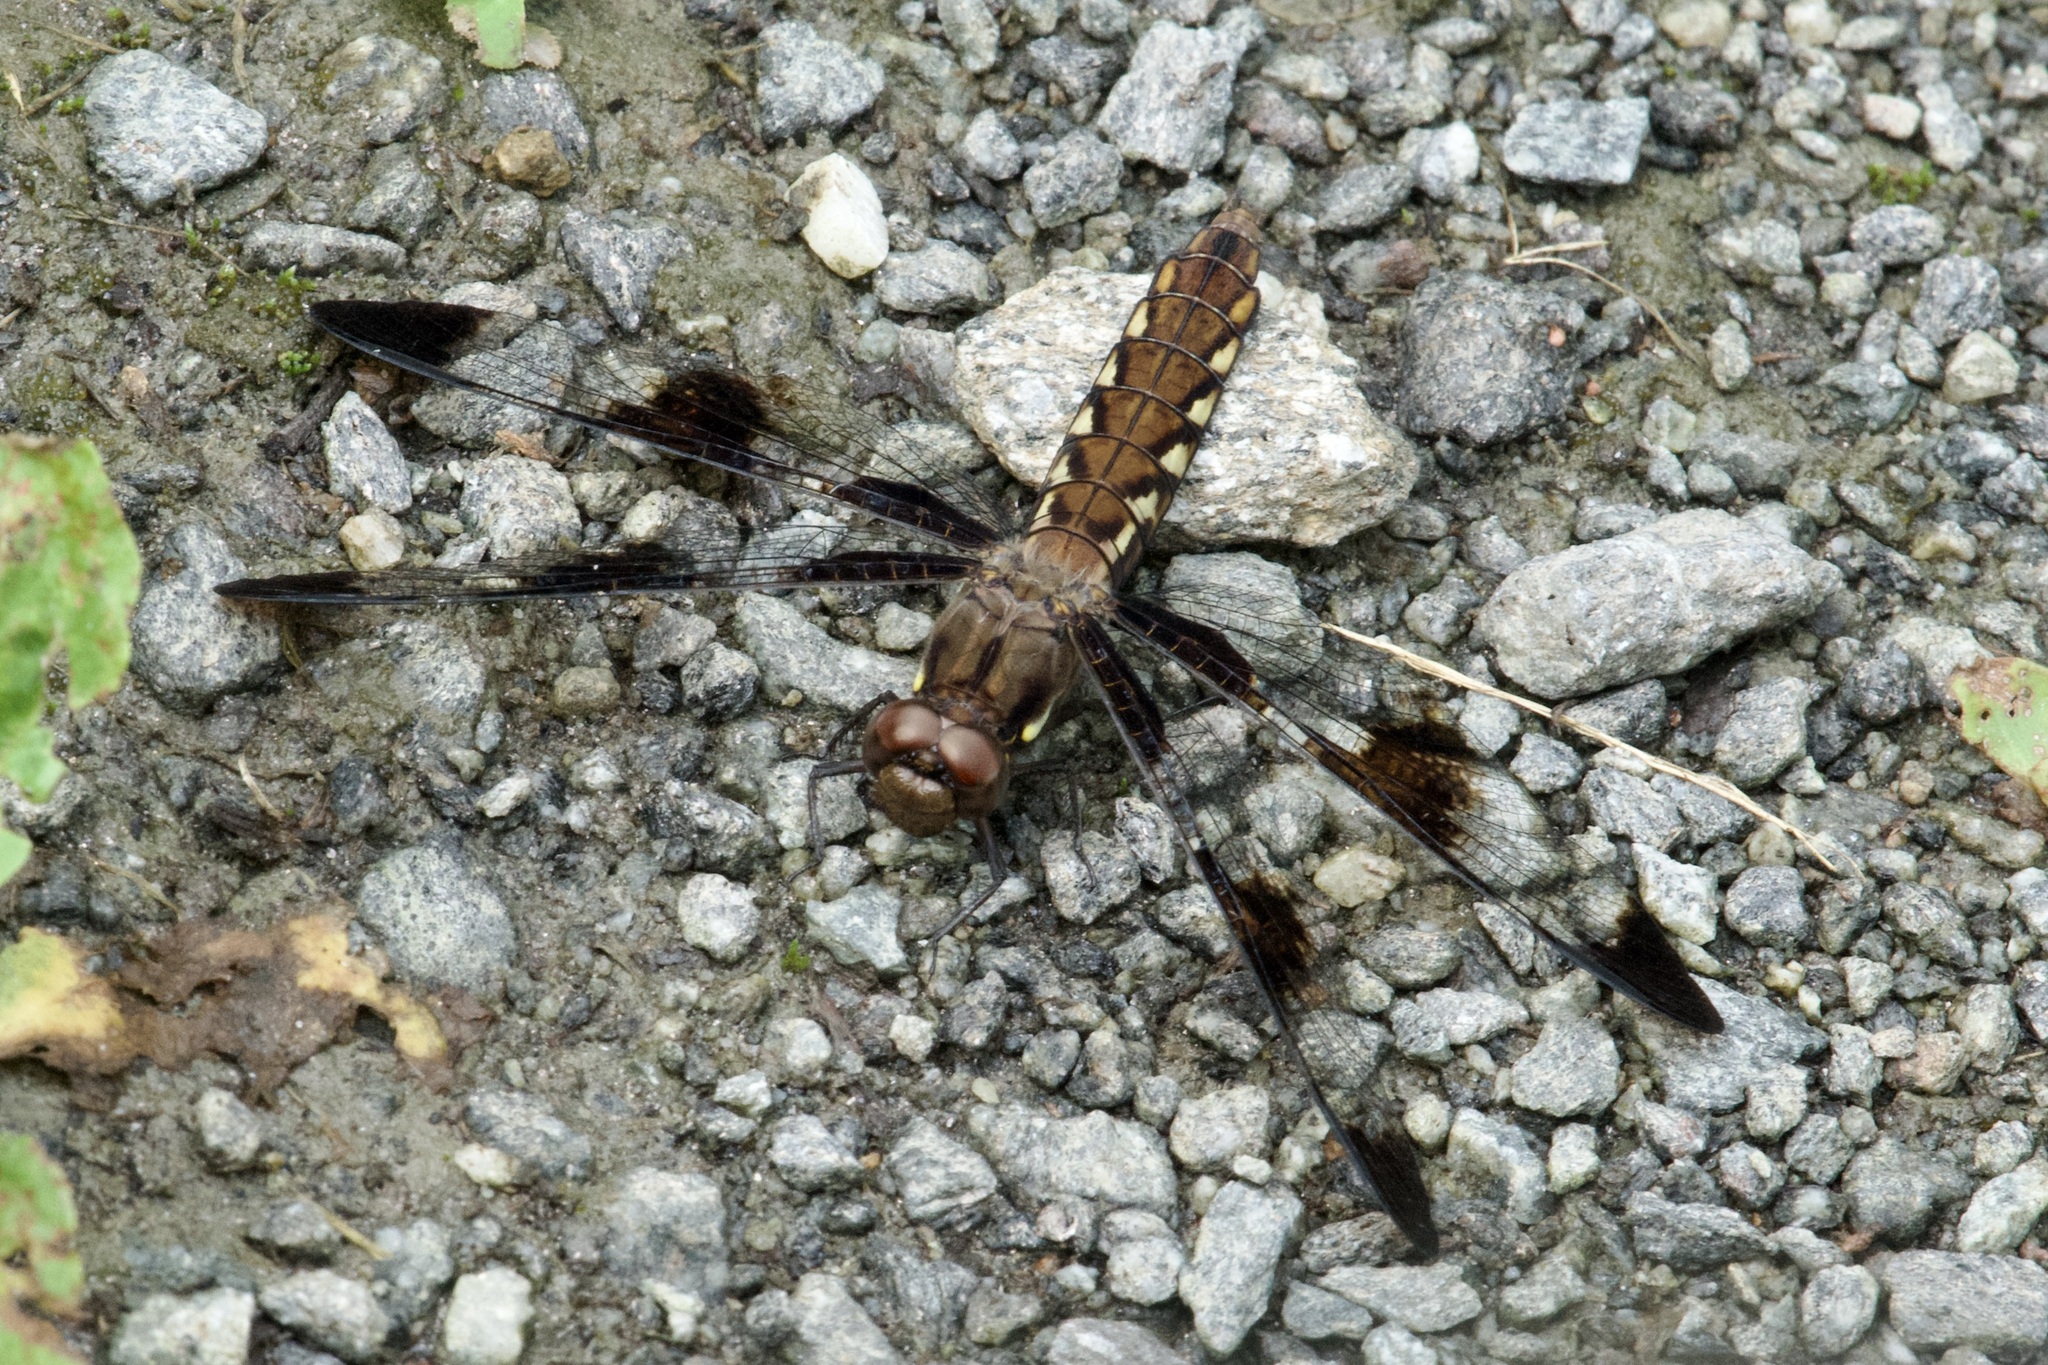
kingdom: Animalia
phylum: Arthropoda
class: Insecta
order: Odonata
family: Libellulidae
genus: Plathemis
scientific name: Plathemis lydia
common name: Common whitetail
